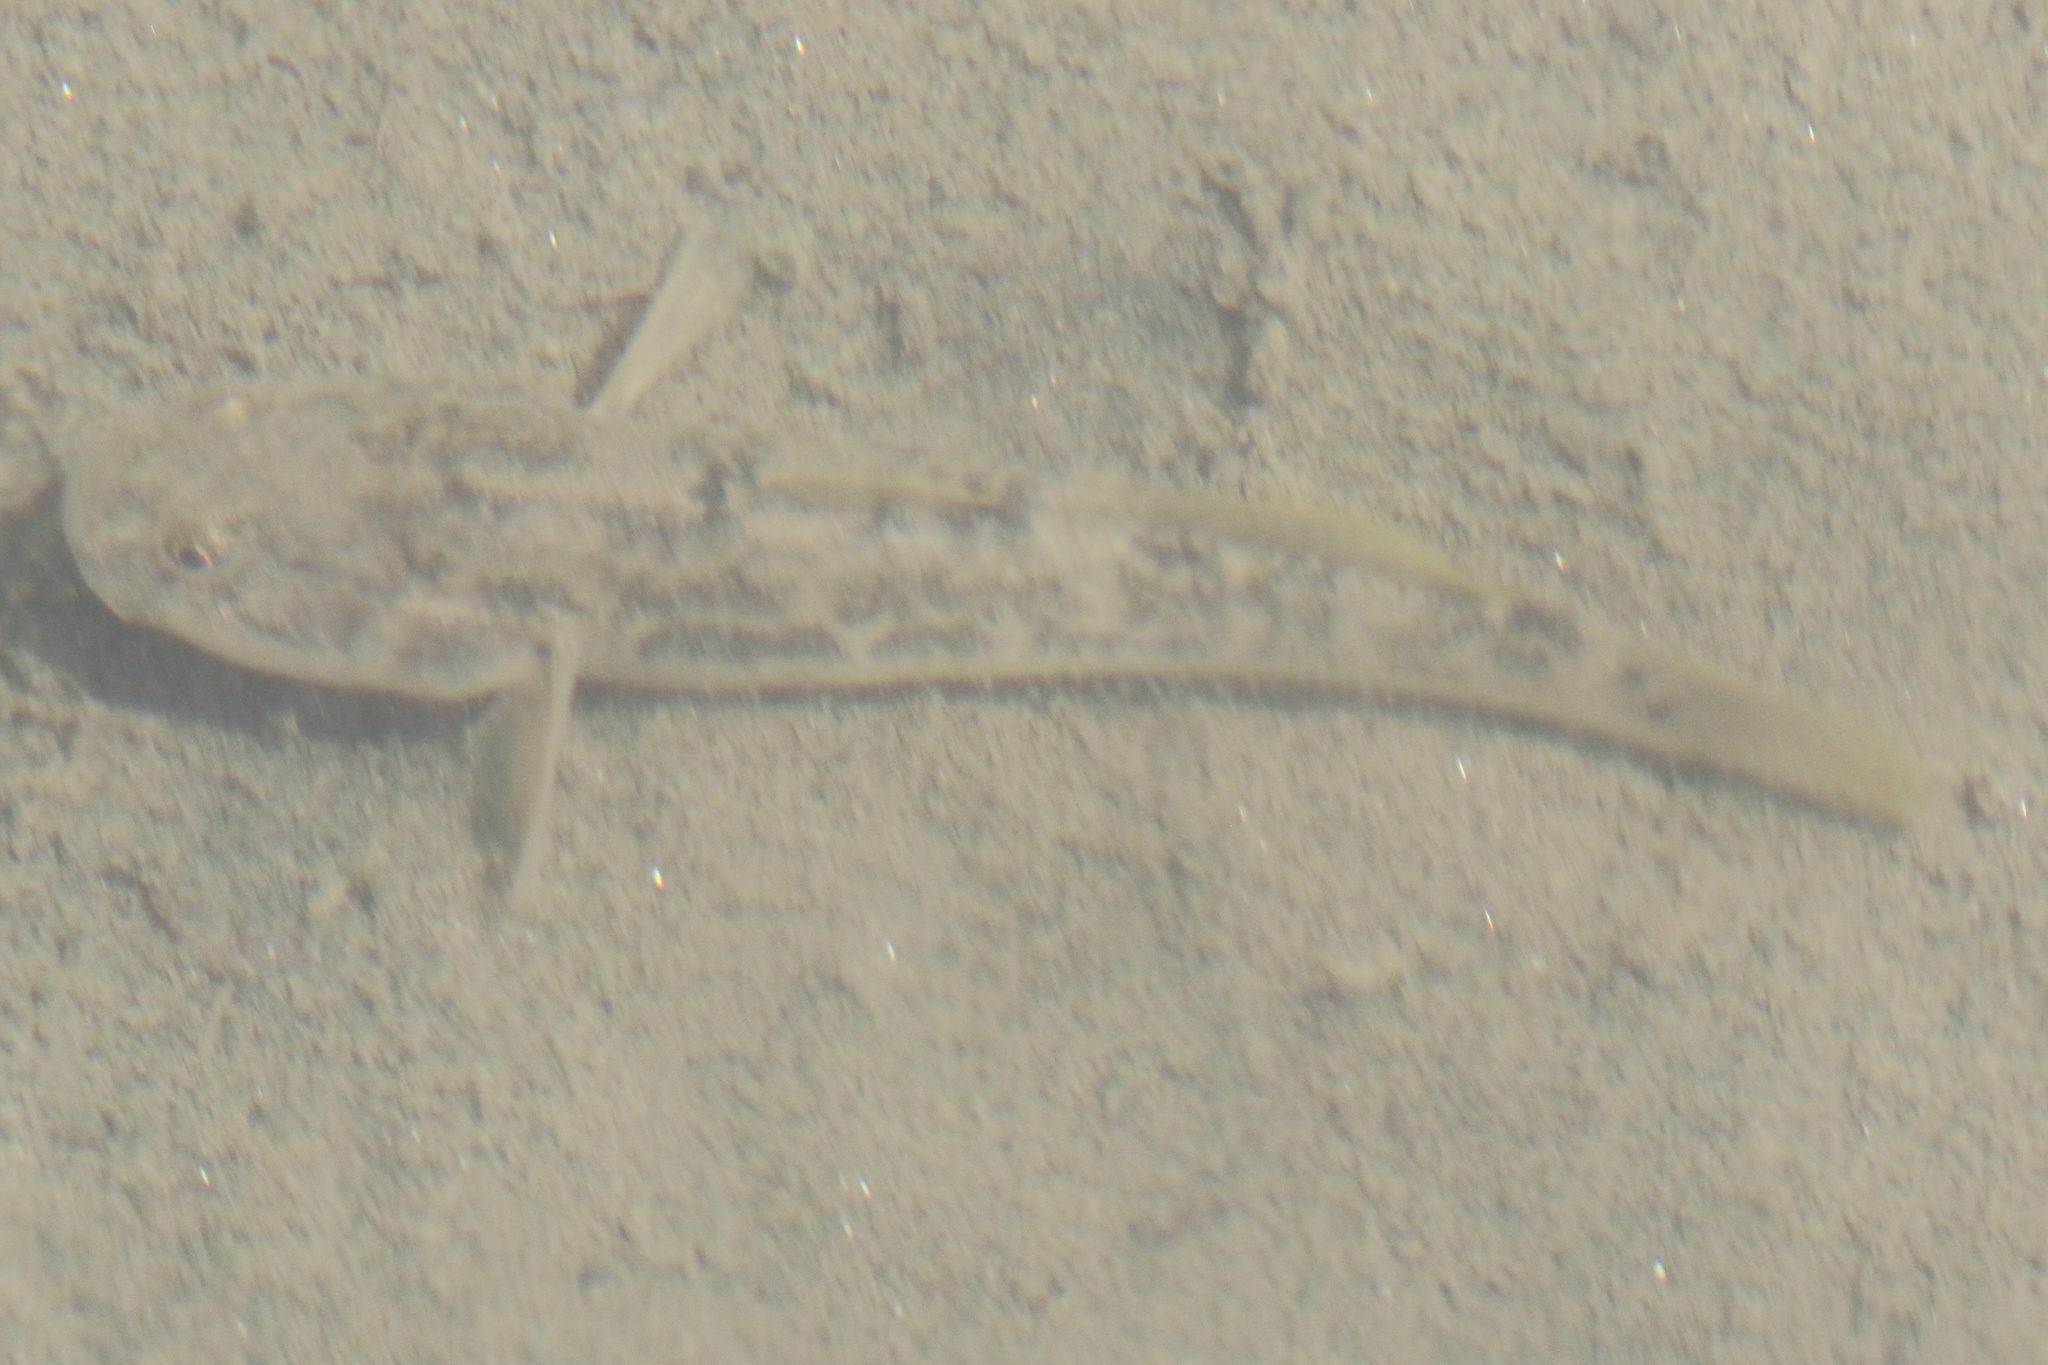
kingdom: Animalia
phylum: Chordata
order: Perciformes
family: Gobiidae
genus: Gillichthys
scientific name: Gillichthys mirabilis
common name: Longjaw mudsucker
